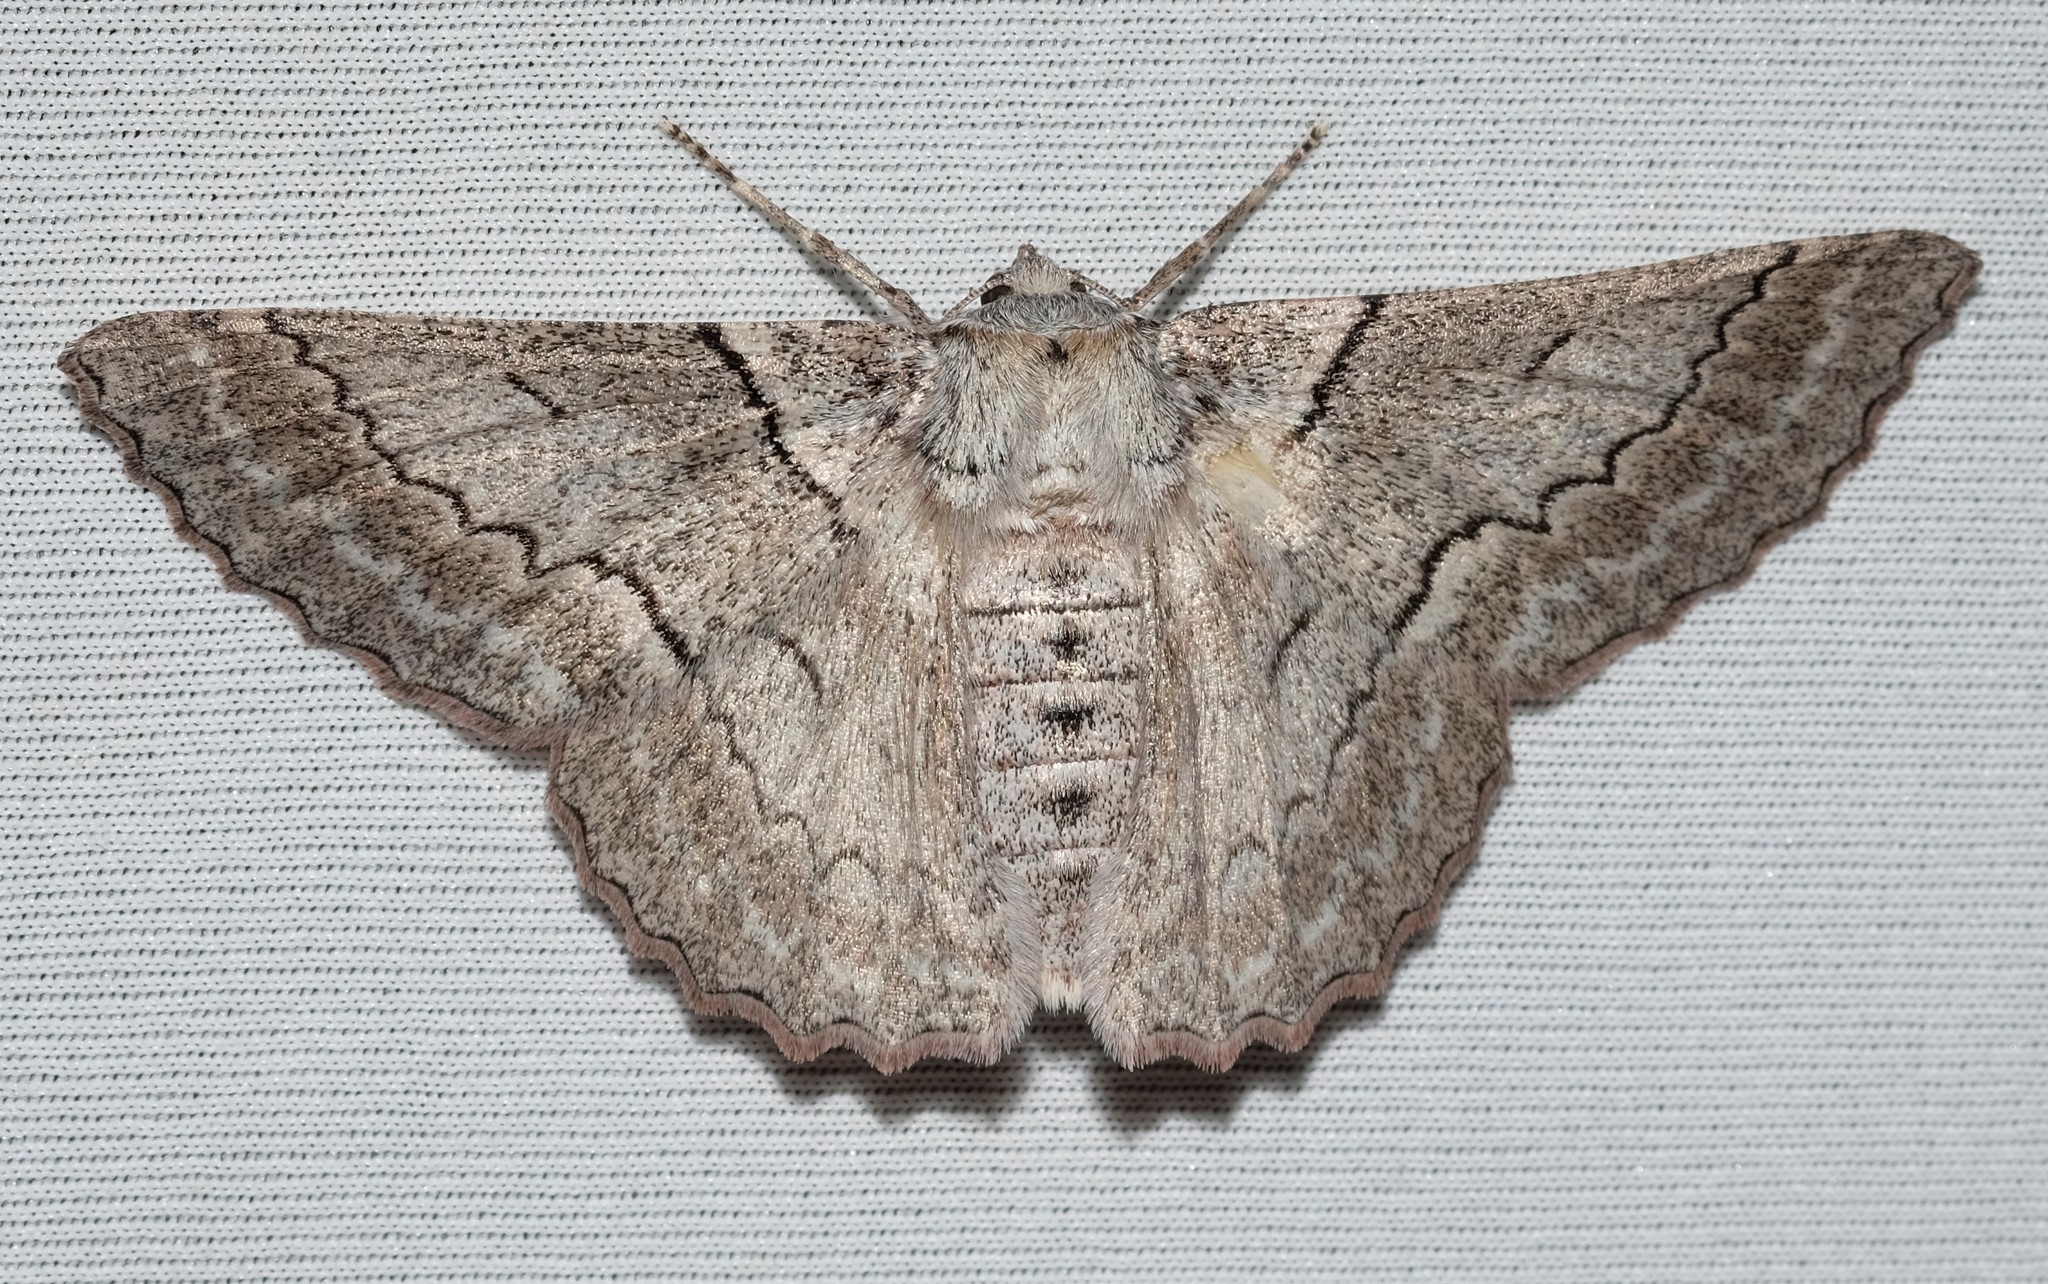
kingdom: Animalia
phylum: Arthropoda
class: Insecta
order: Lepidoptera
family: Geometridae
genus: Hypobapta
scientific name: Hypobapta tachyhalotaria
